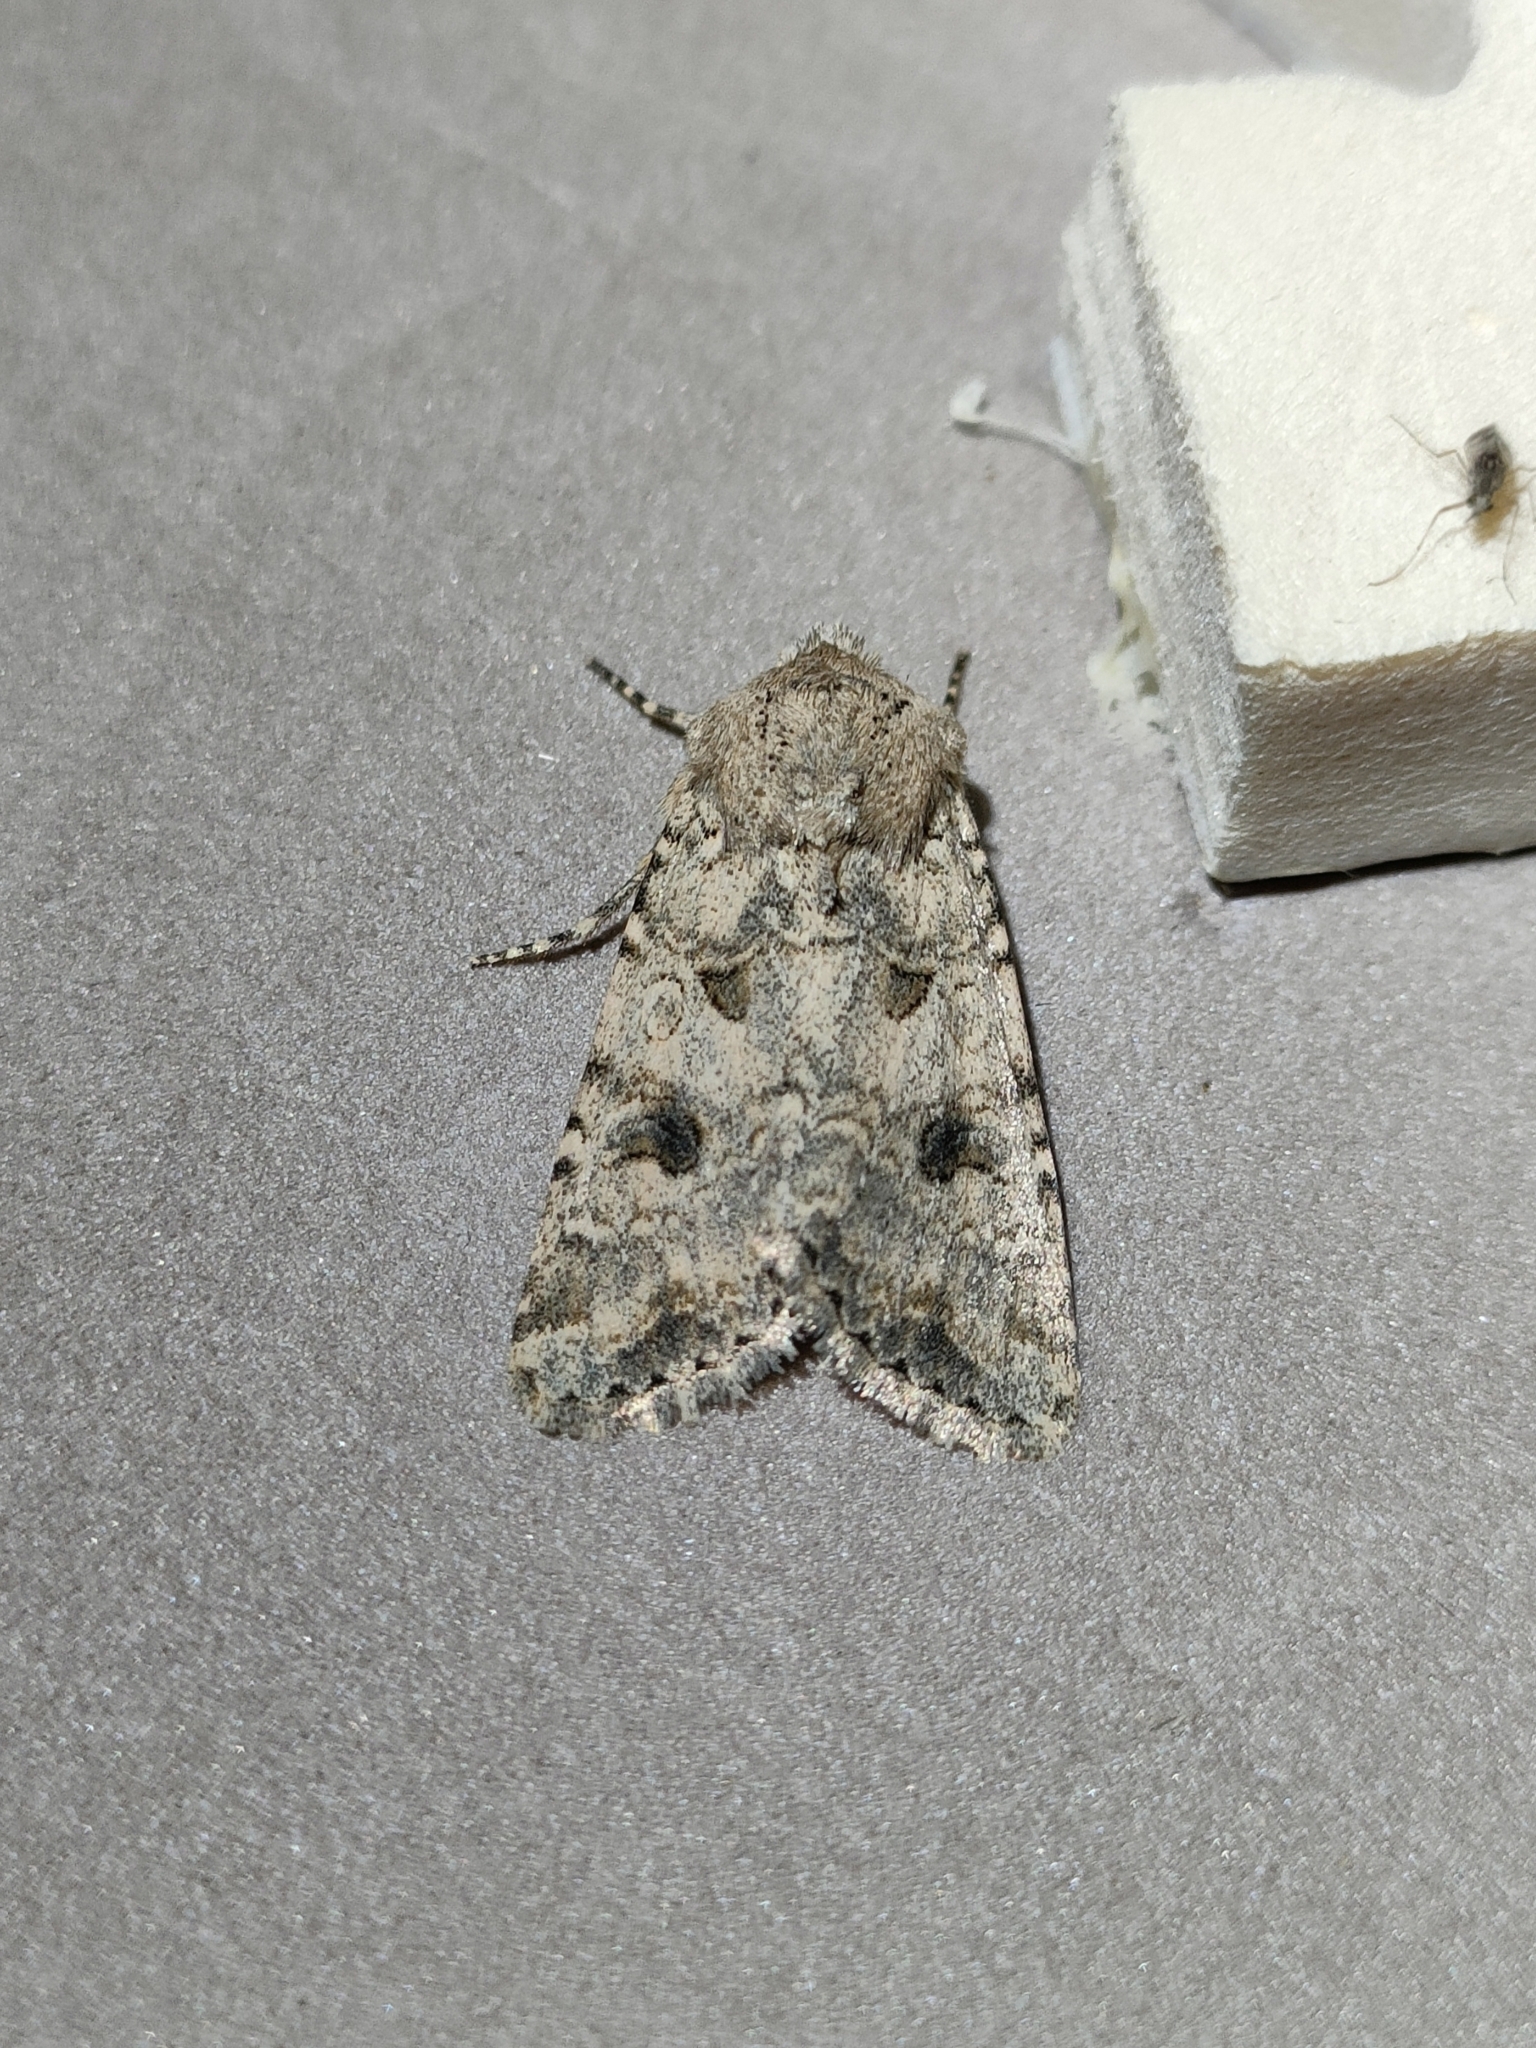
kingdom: Animalia
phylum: Arthropoda
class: Insecta
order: Lepidoptera
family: Noctuidae
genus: Anarta
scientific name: Anarta sodae
